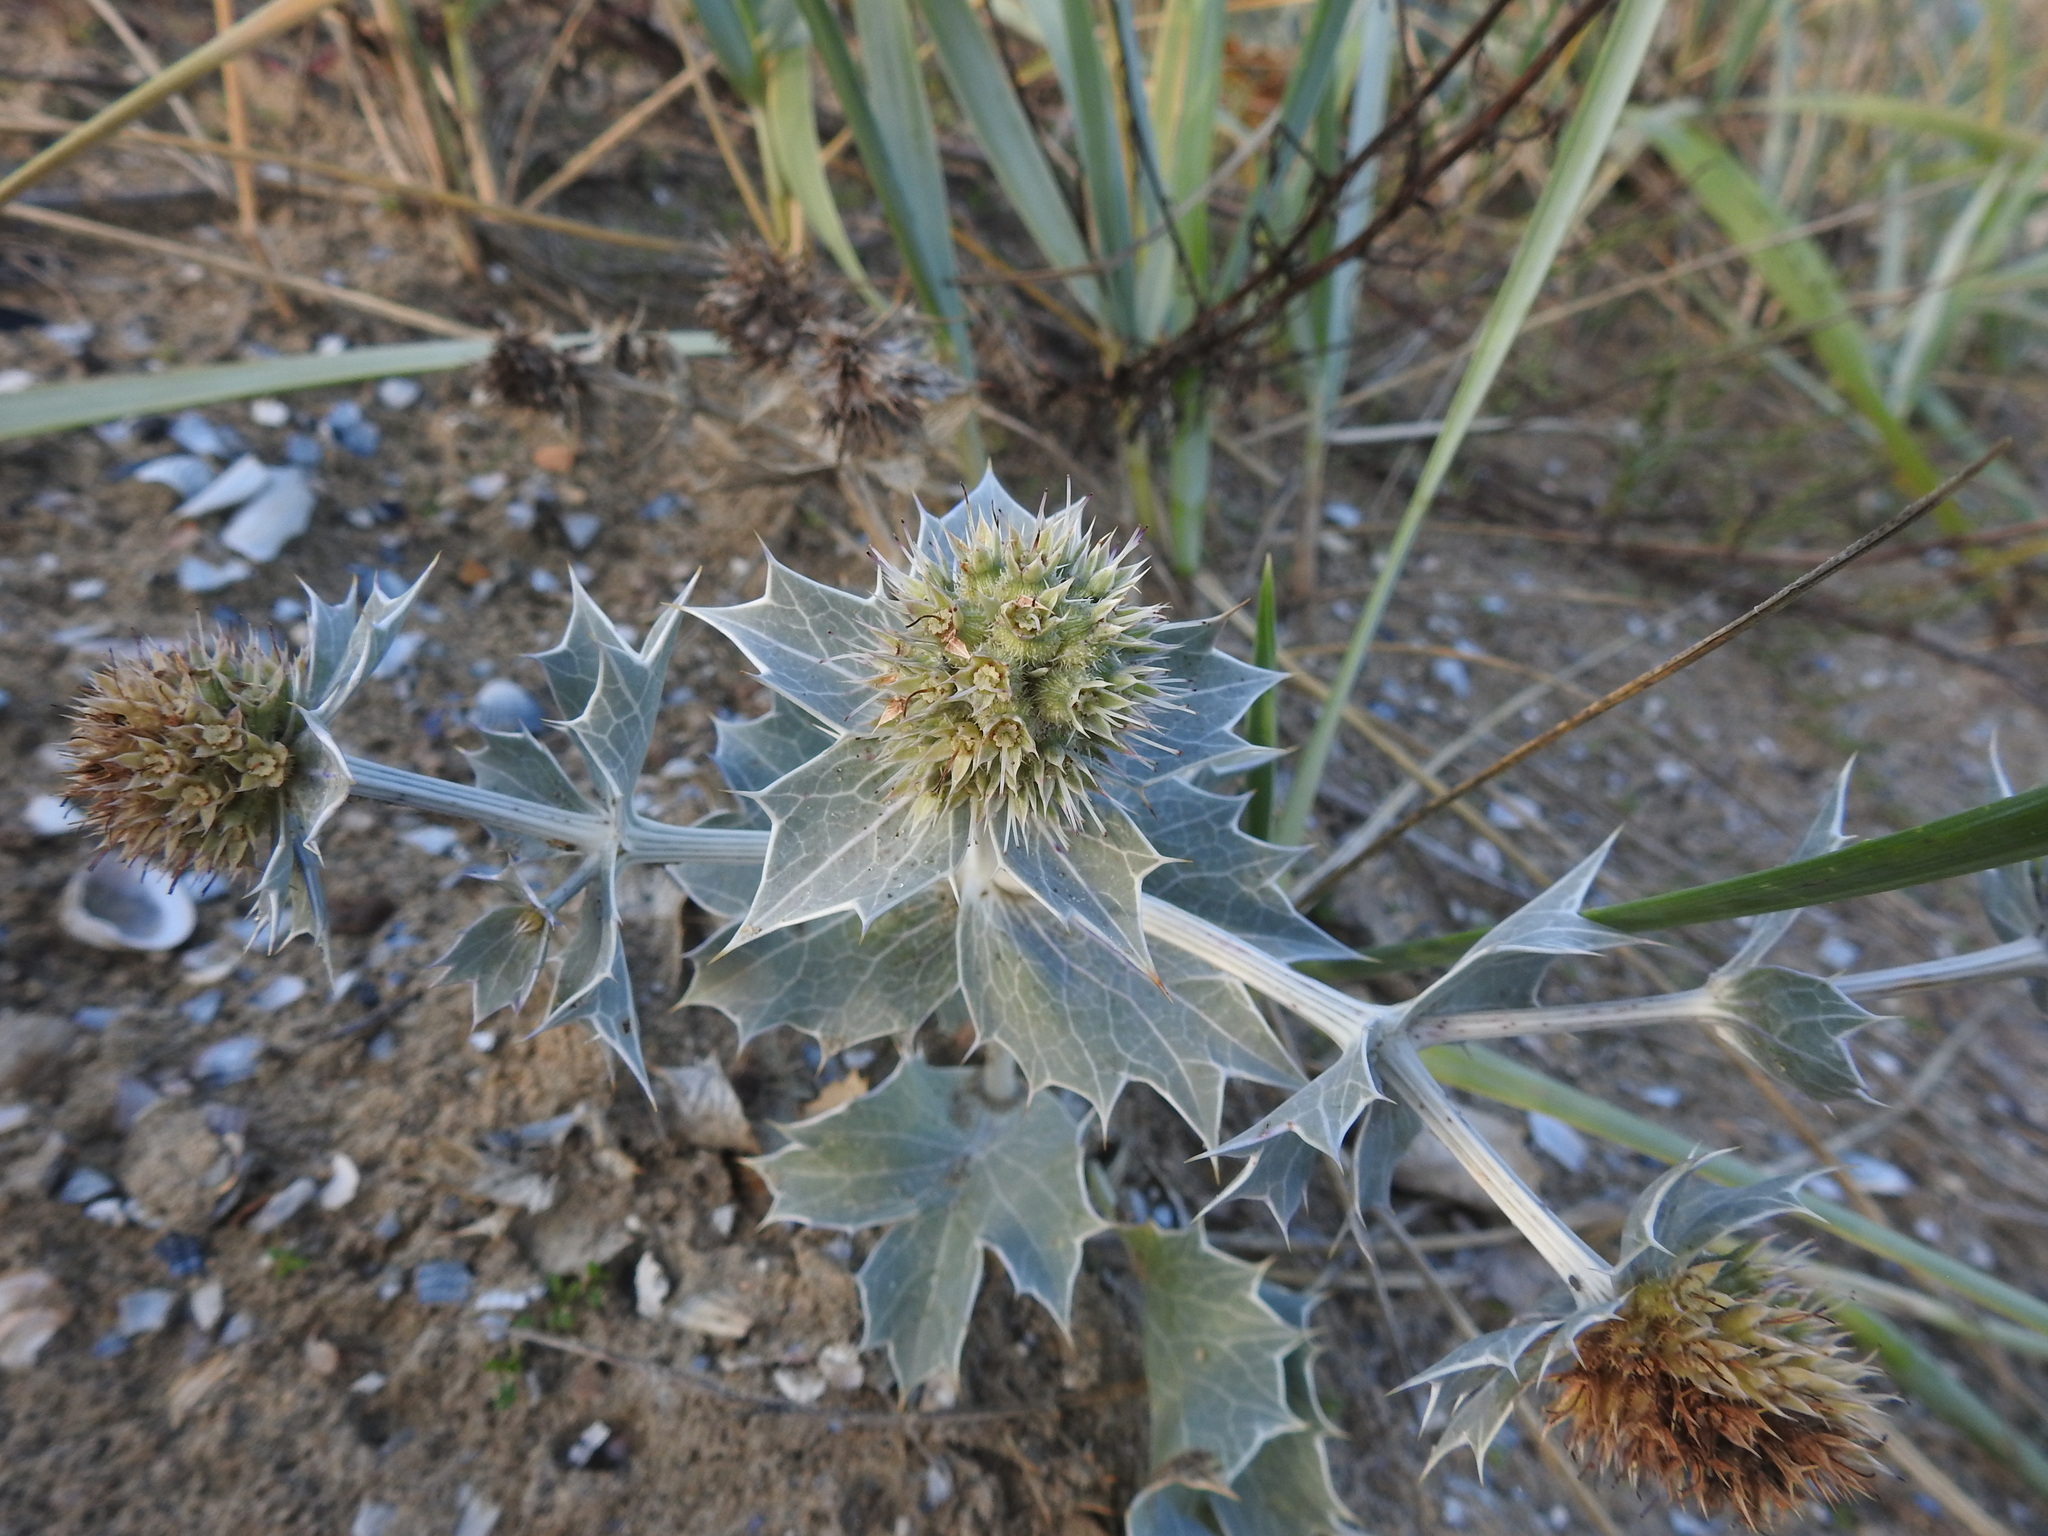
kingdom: Plantae
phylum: Tracheophyta
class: Magnoliopsida
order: Apiales
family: Apiaceae
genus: Eryngium
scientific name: Eryngium maritimum
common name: Sea-holly
